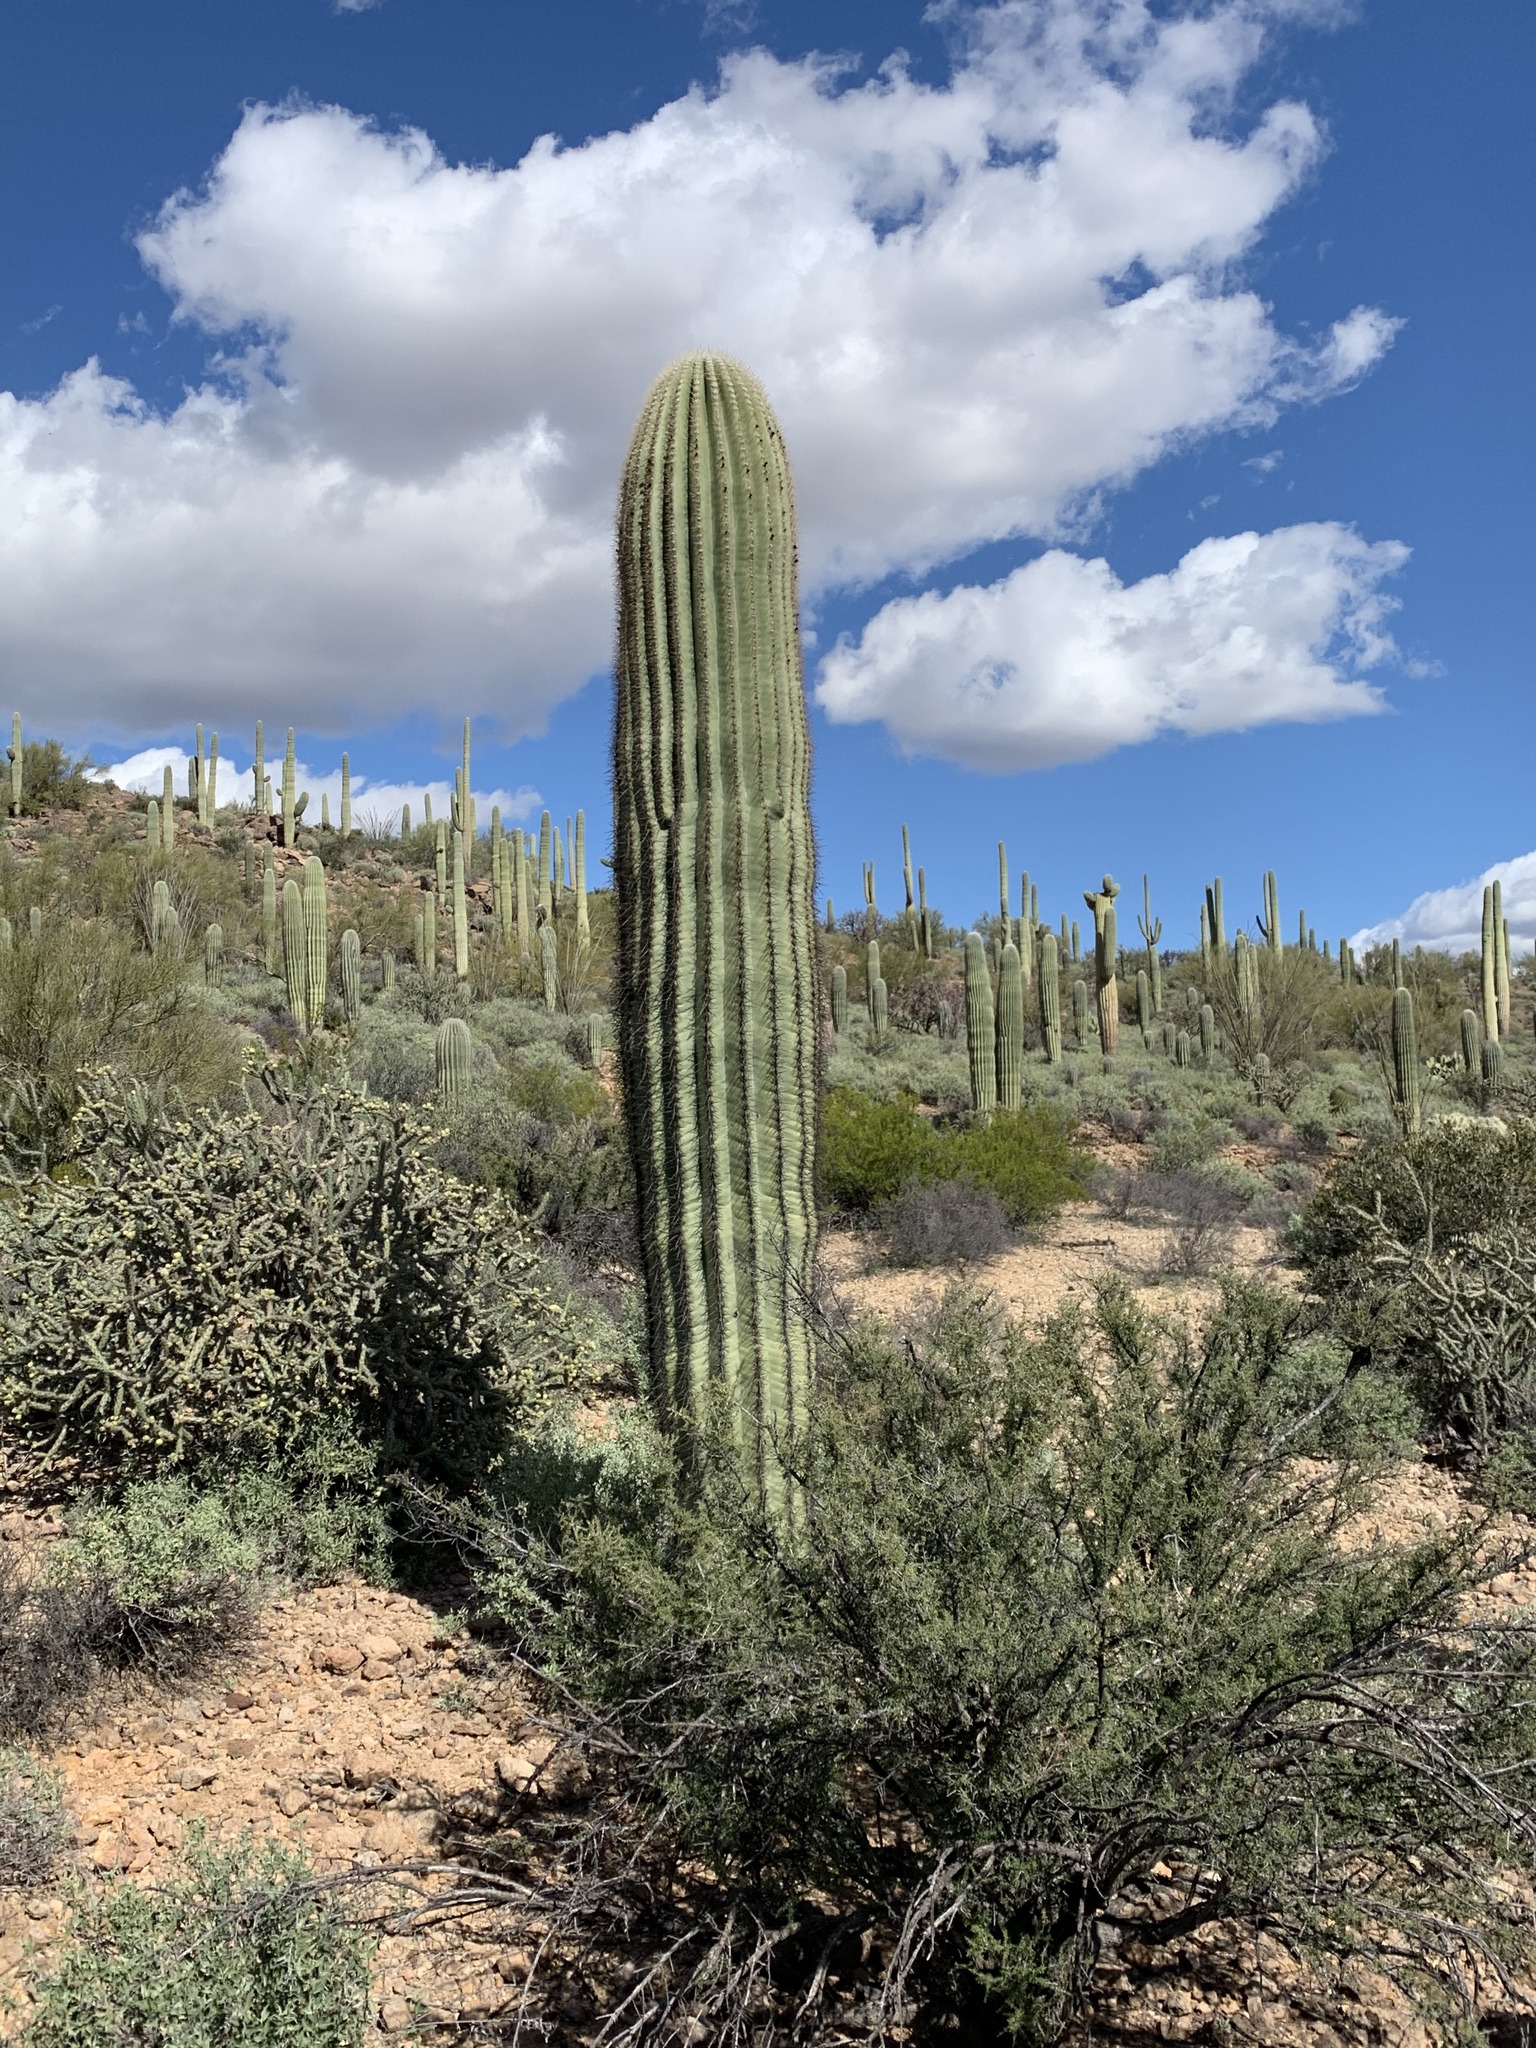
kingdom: Plantae
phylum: Tracheophyta
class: Magnoliopsida
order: Caryophyllales
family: Cactaceae
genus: Carnegiea
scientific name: Carnegiea gigantea
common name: Saguaro
